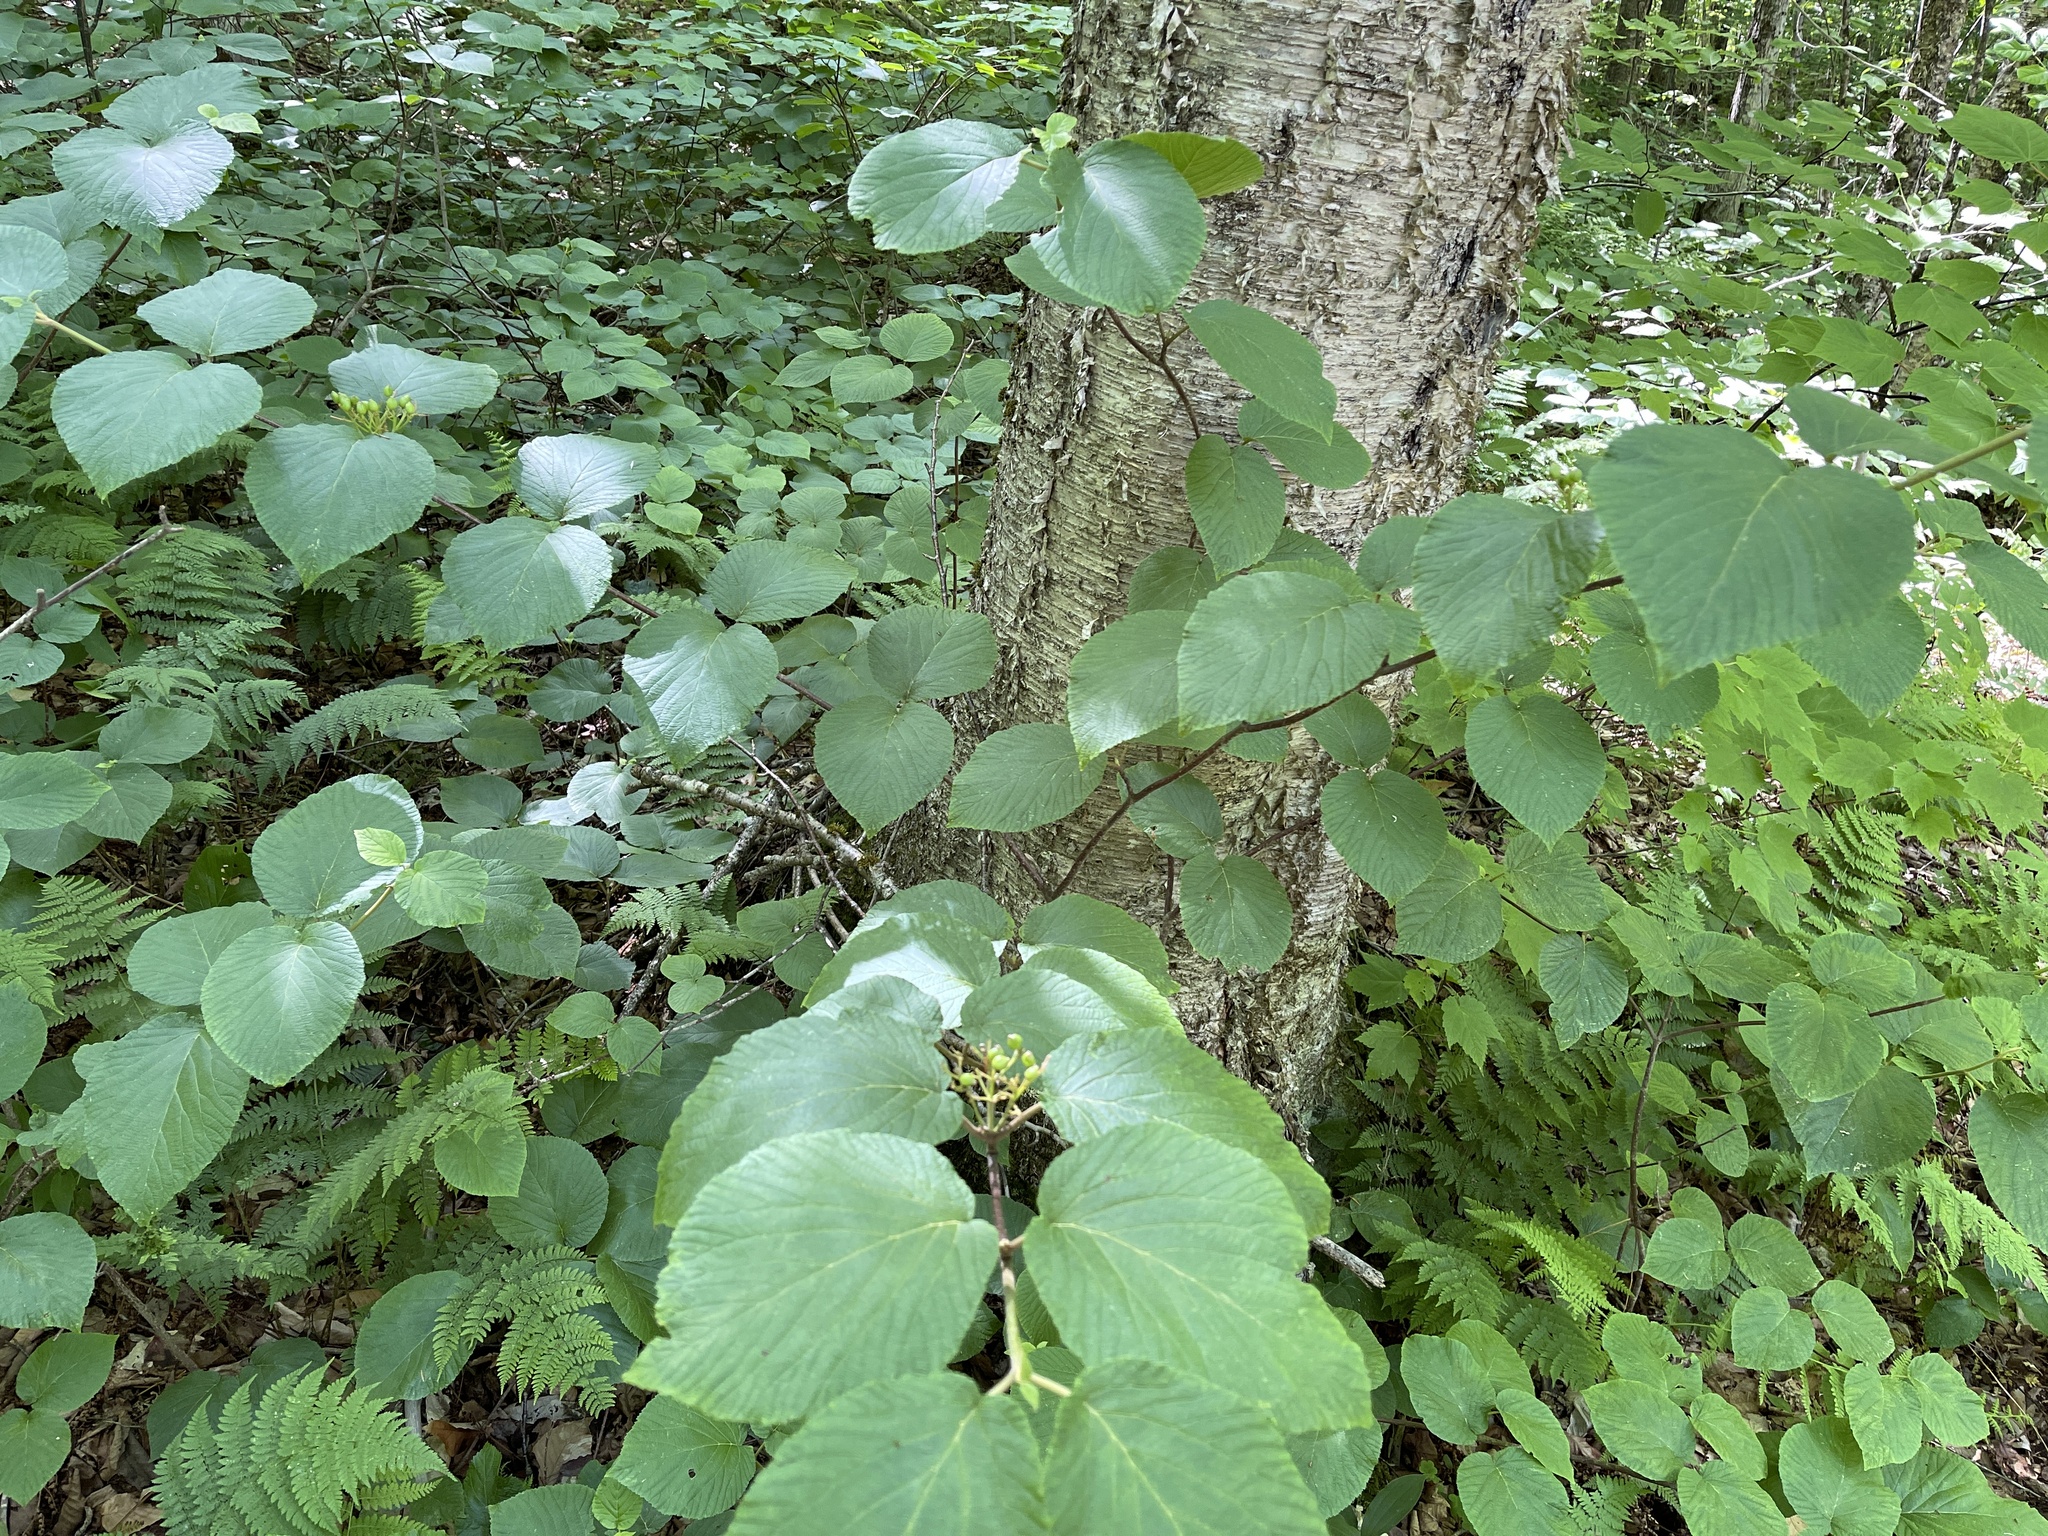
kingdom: Plantae
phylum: Tracheophyta
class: Magnoliopsida
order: Dipsacales
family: Viburnaceae
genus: Viburnum
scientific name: Viburnum lantanoides
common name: Hobblebush
